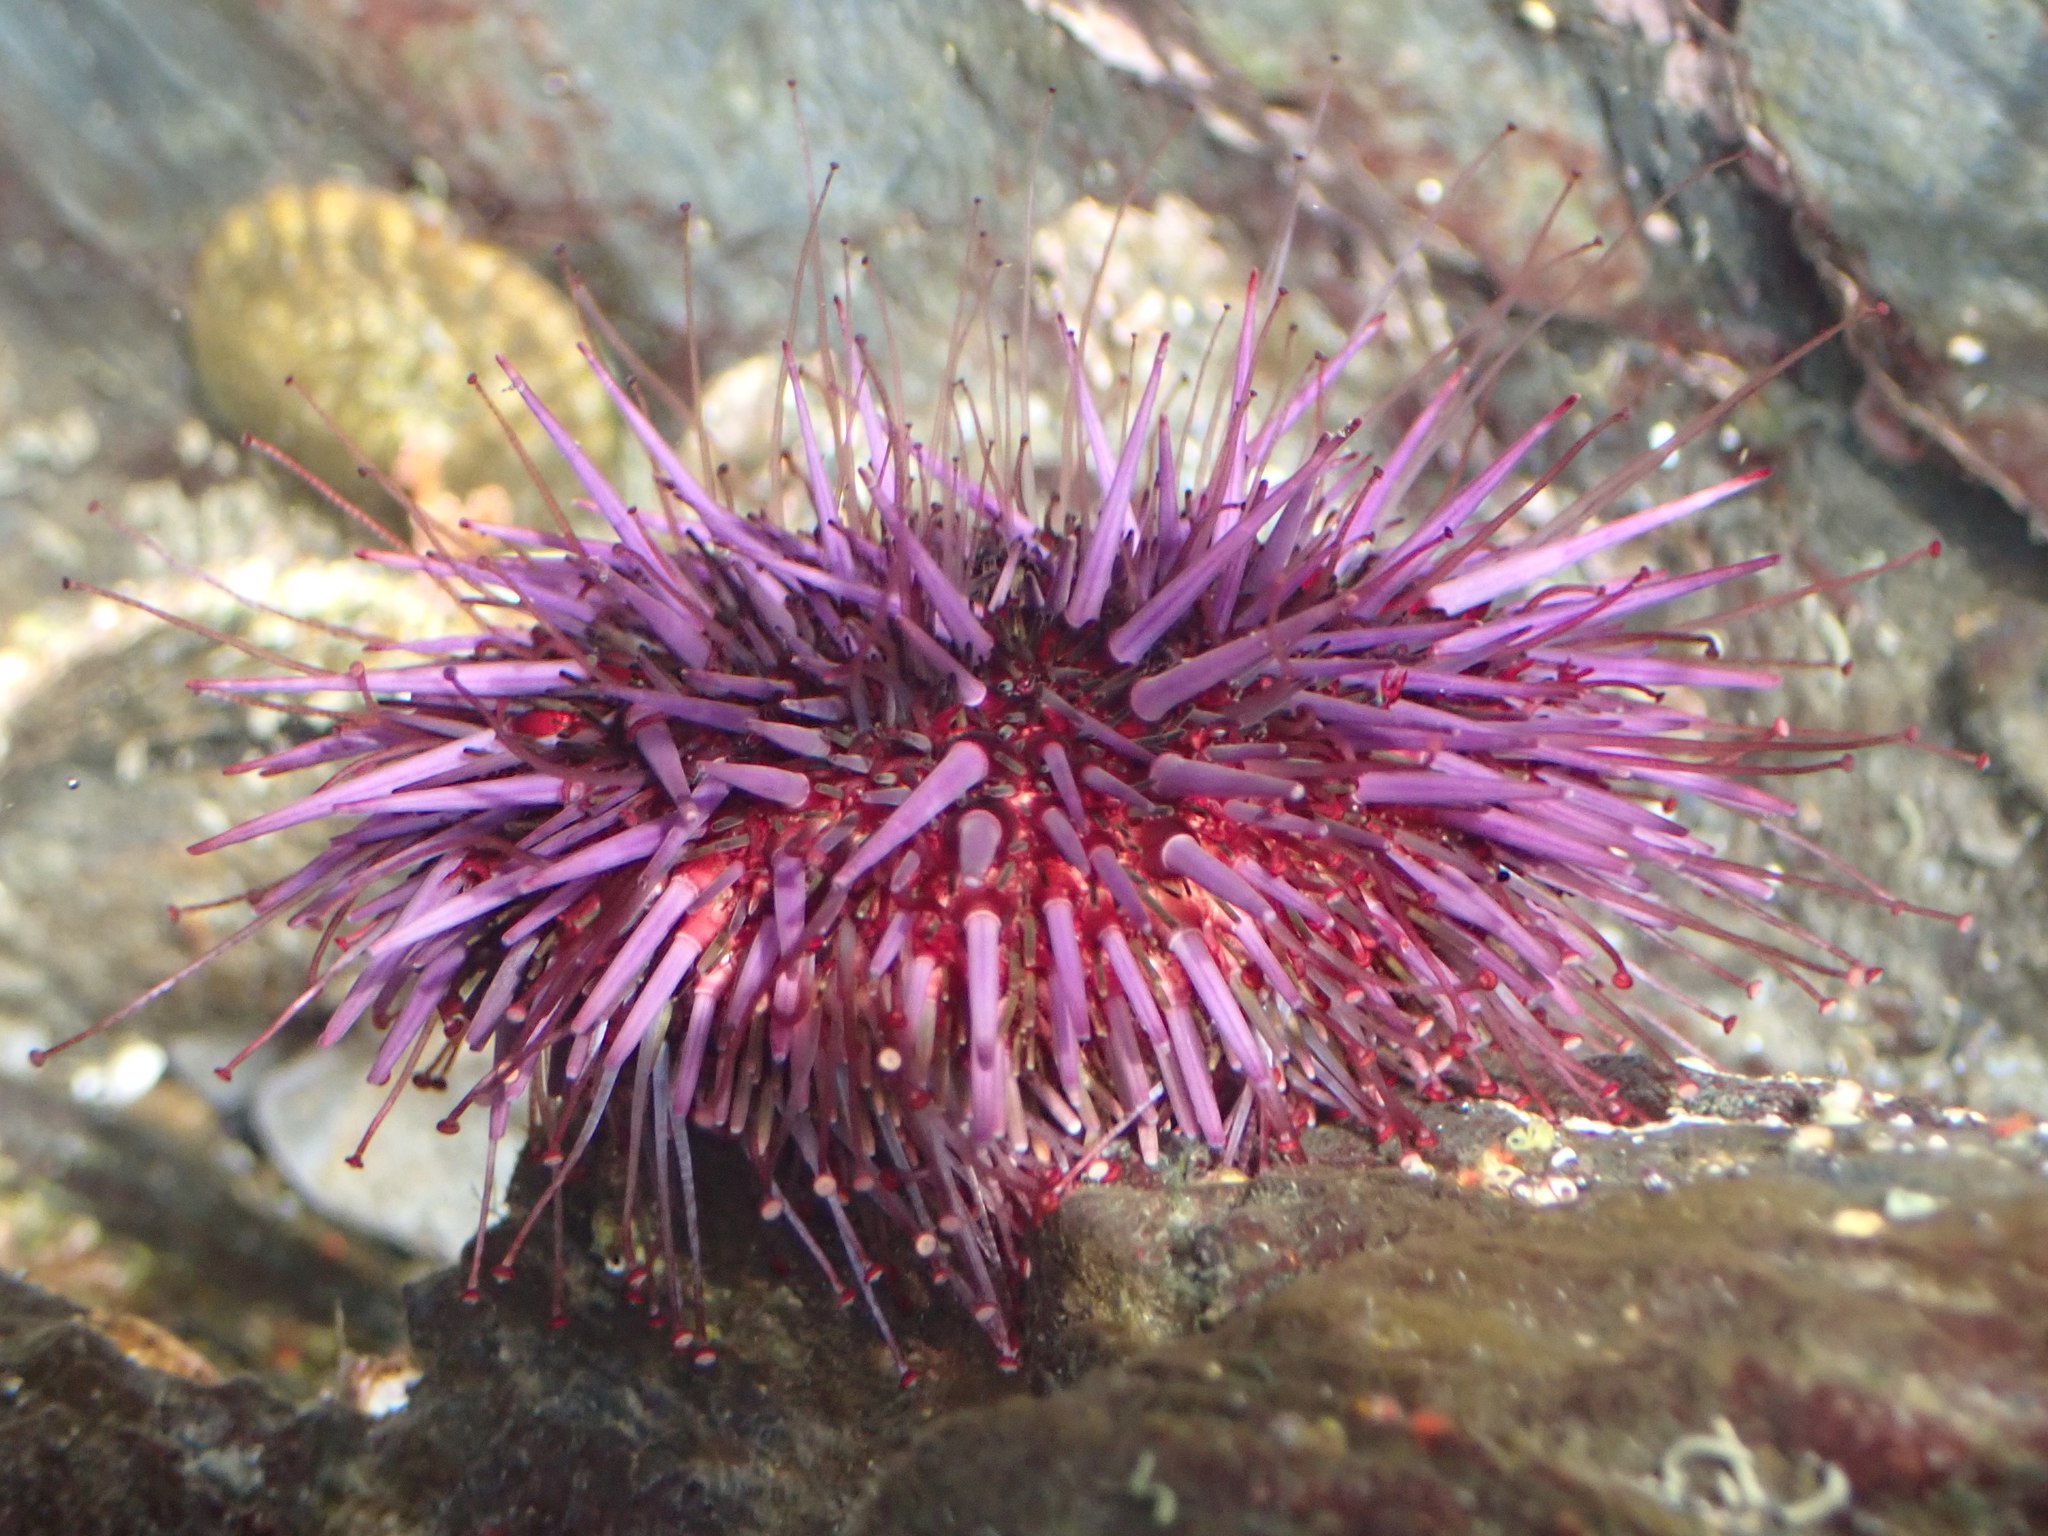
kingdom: Animalia
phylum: Echinodermata
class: Echinoidea
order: Camarodonta
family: Strongylocentrotidae
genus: Strongylocentrotus
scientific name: Strongylocentrotus purpuratus
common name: Purple sea urchin
